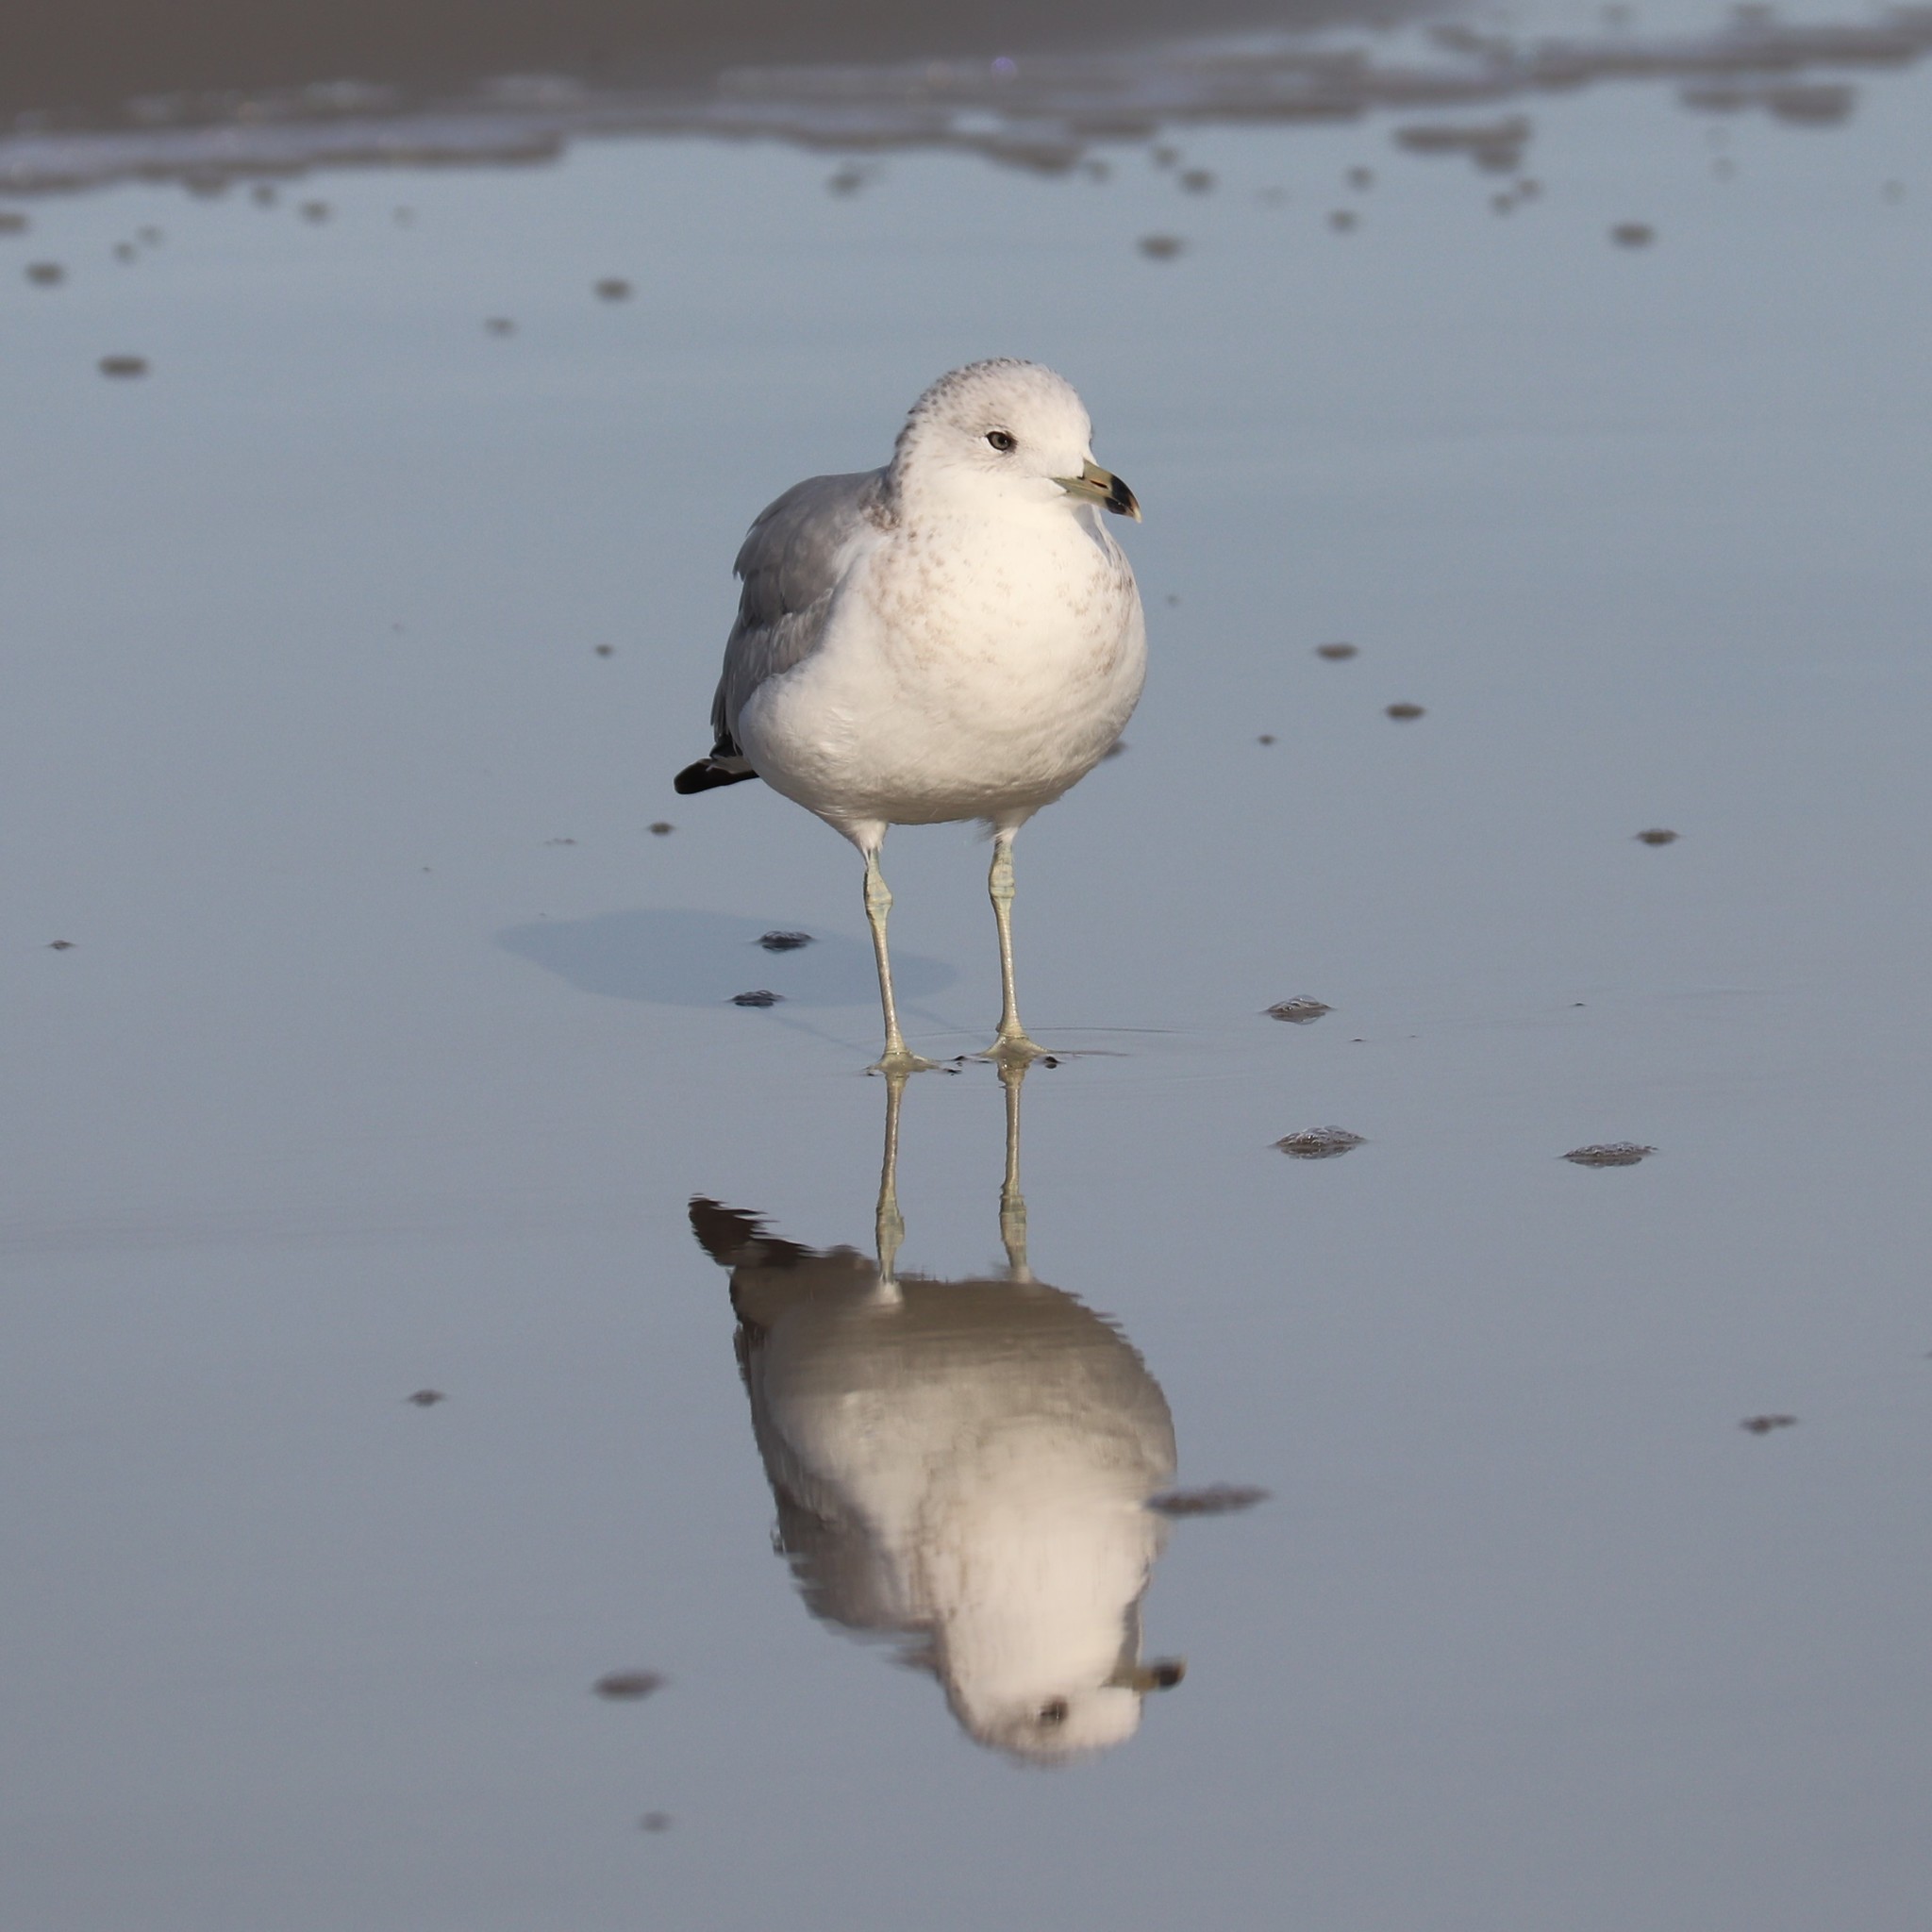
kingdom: Animalia
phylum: Chordata
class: Aves
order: Charadriiformes
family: Laridae
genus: Larus
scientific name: Larus delawarensis
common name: Ring-billed gull
